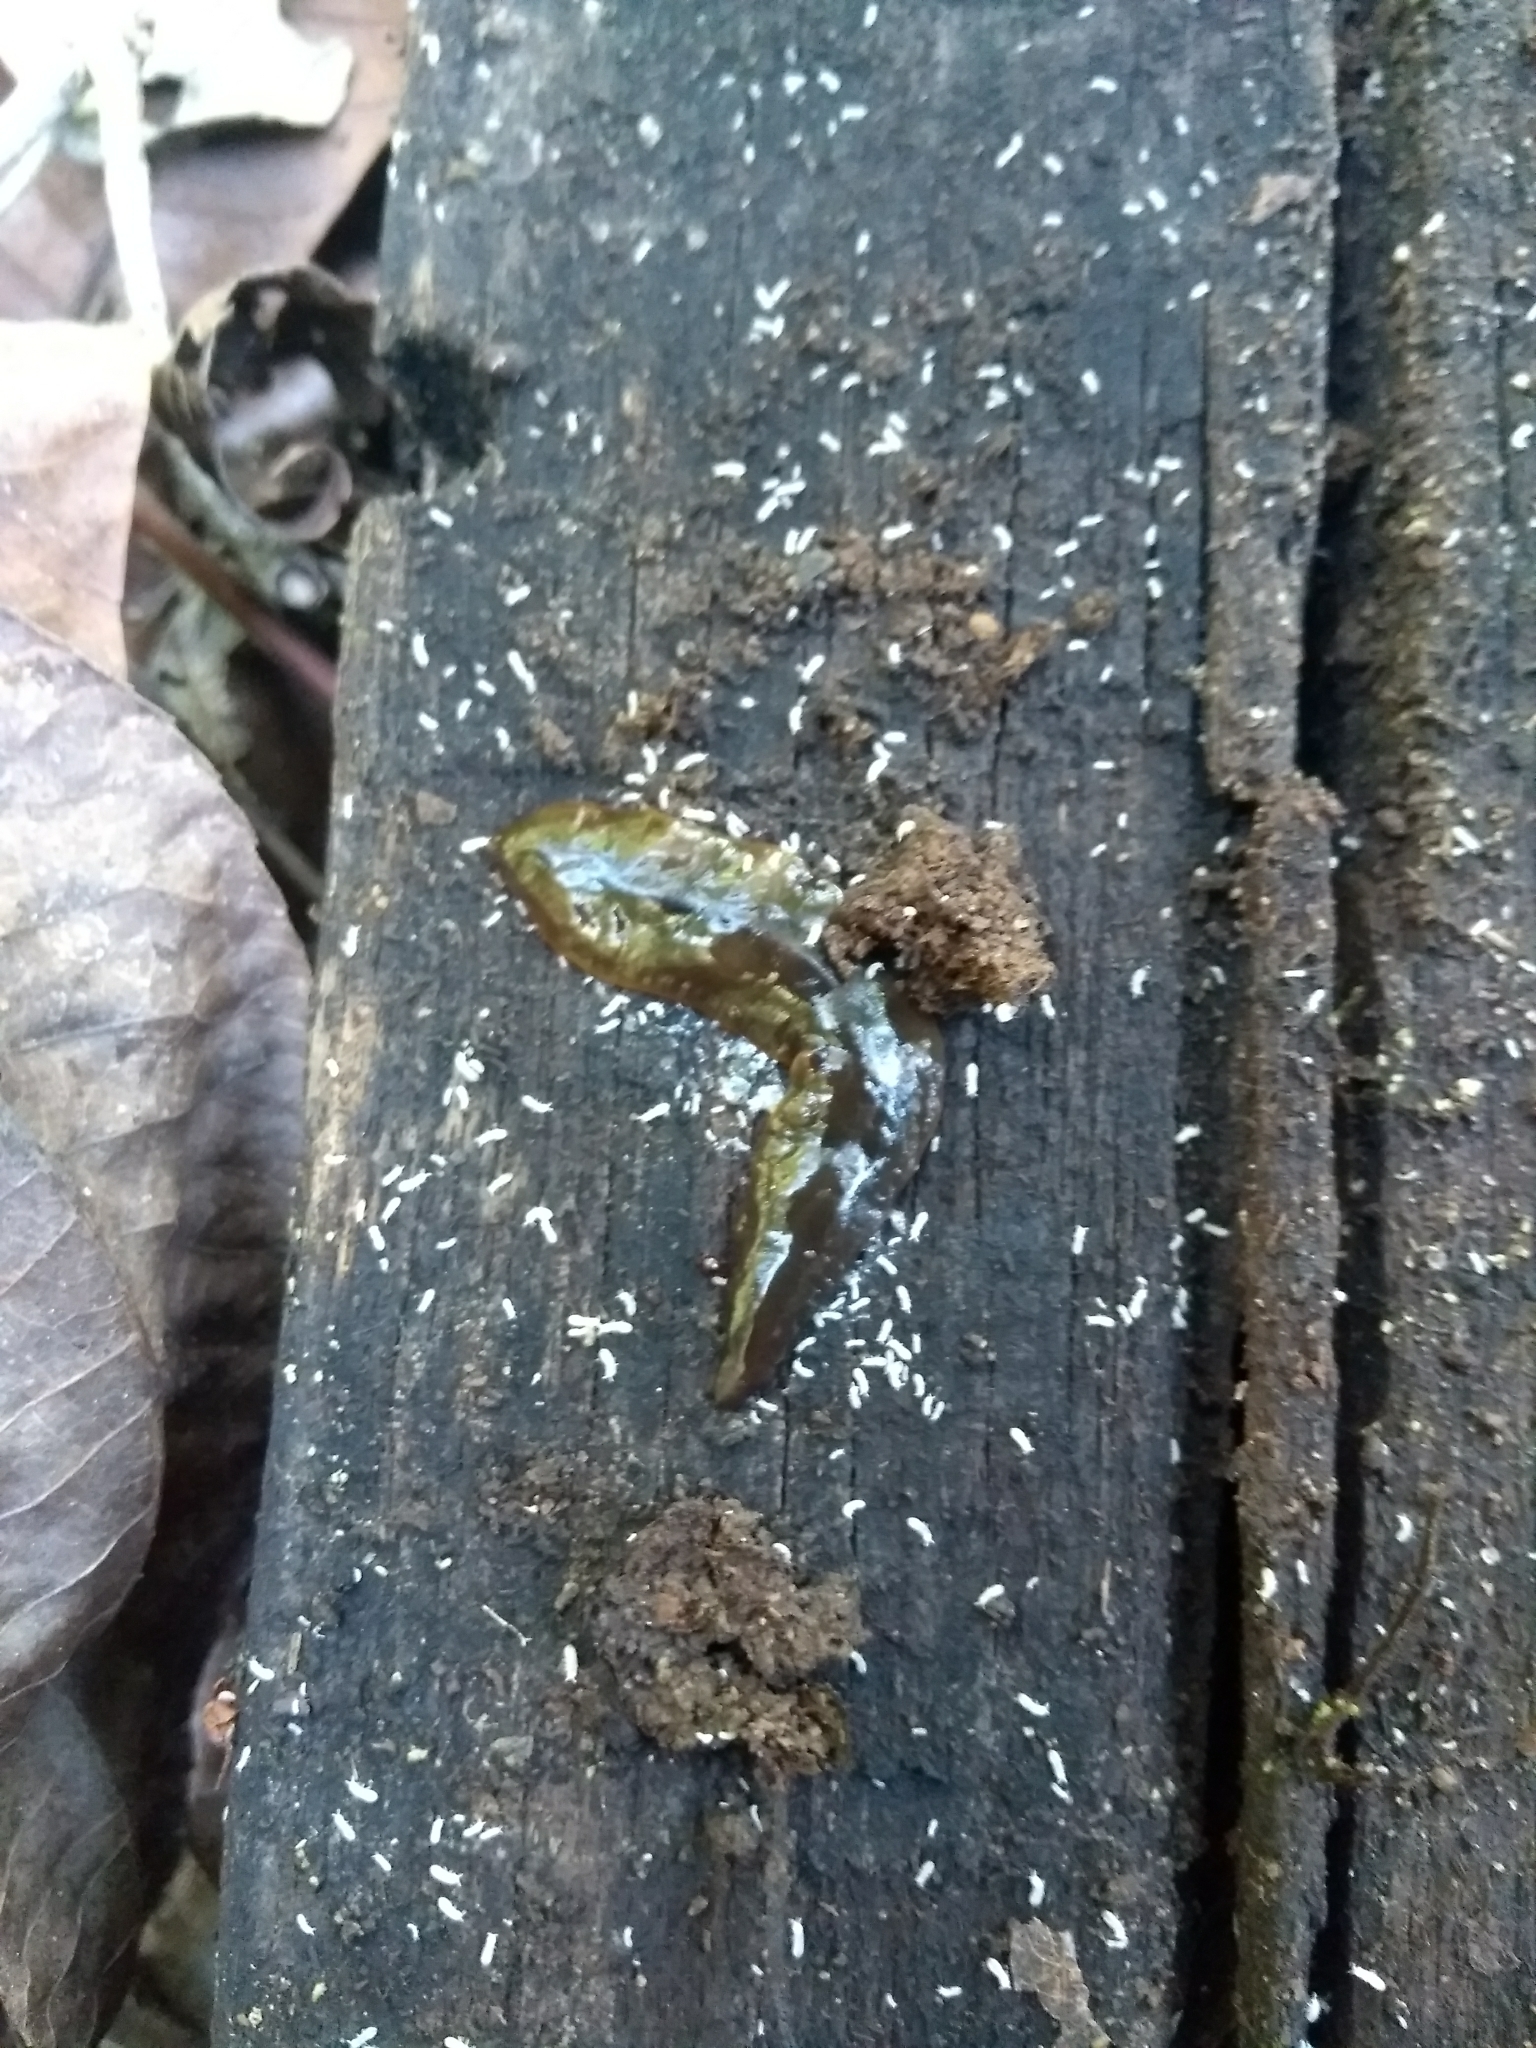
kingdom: Animalia
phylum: Platyhelminthes
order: Tricladida
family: Geoplanidae
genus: Obama
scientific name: Obama anthropophila
